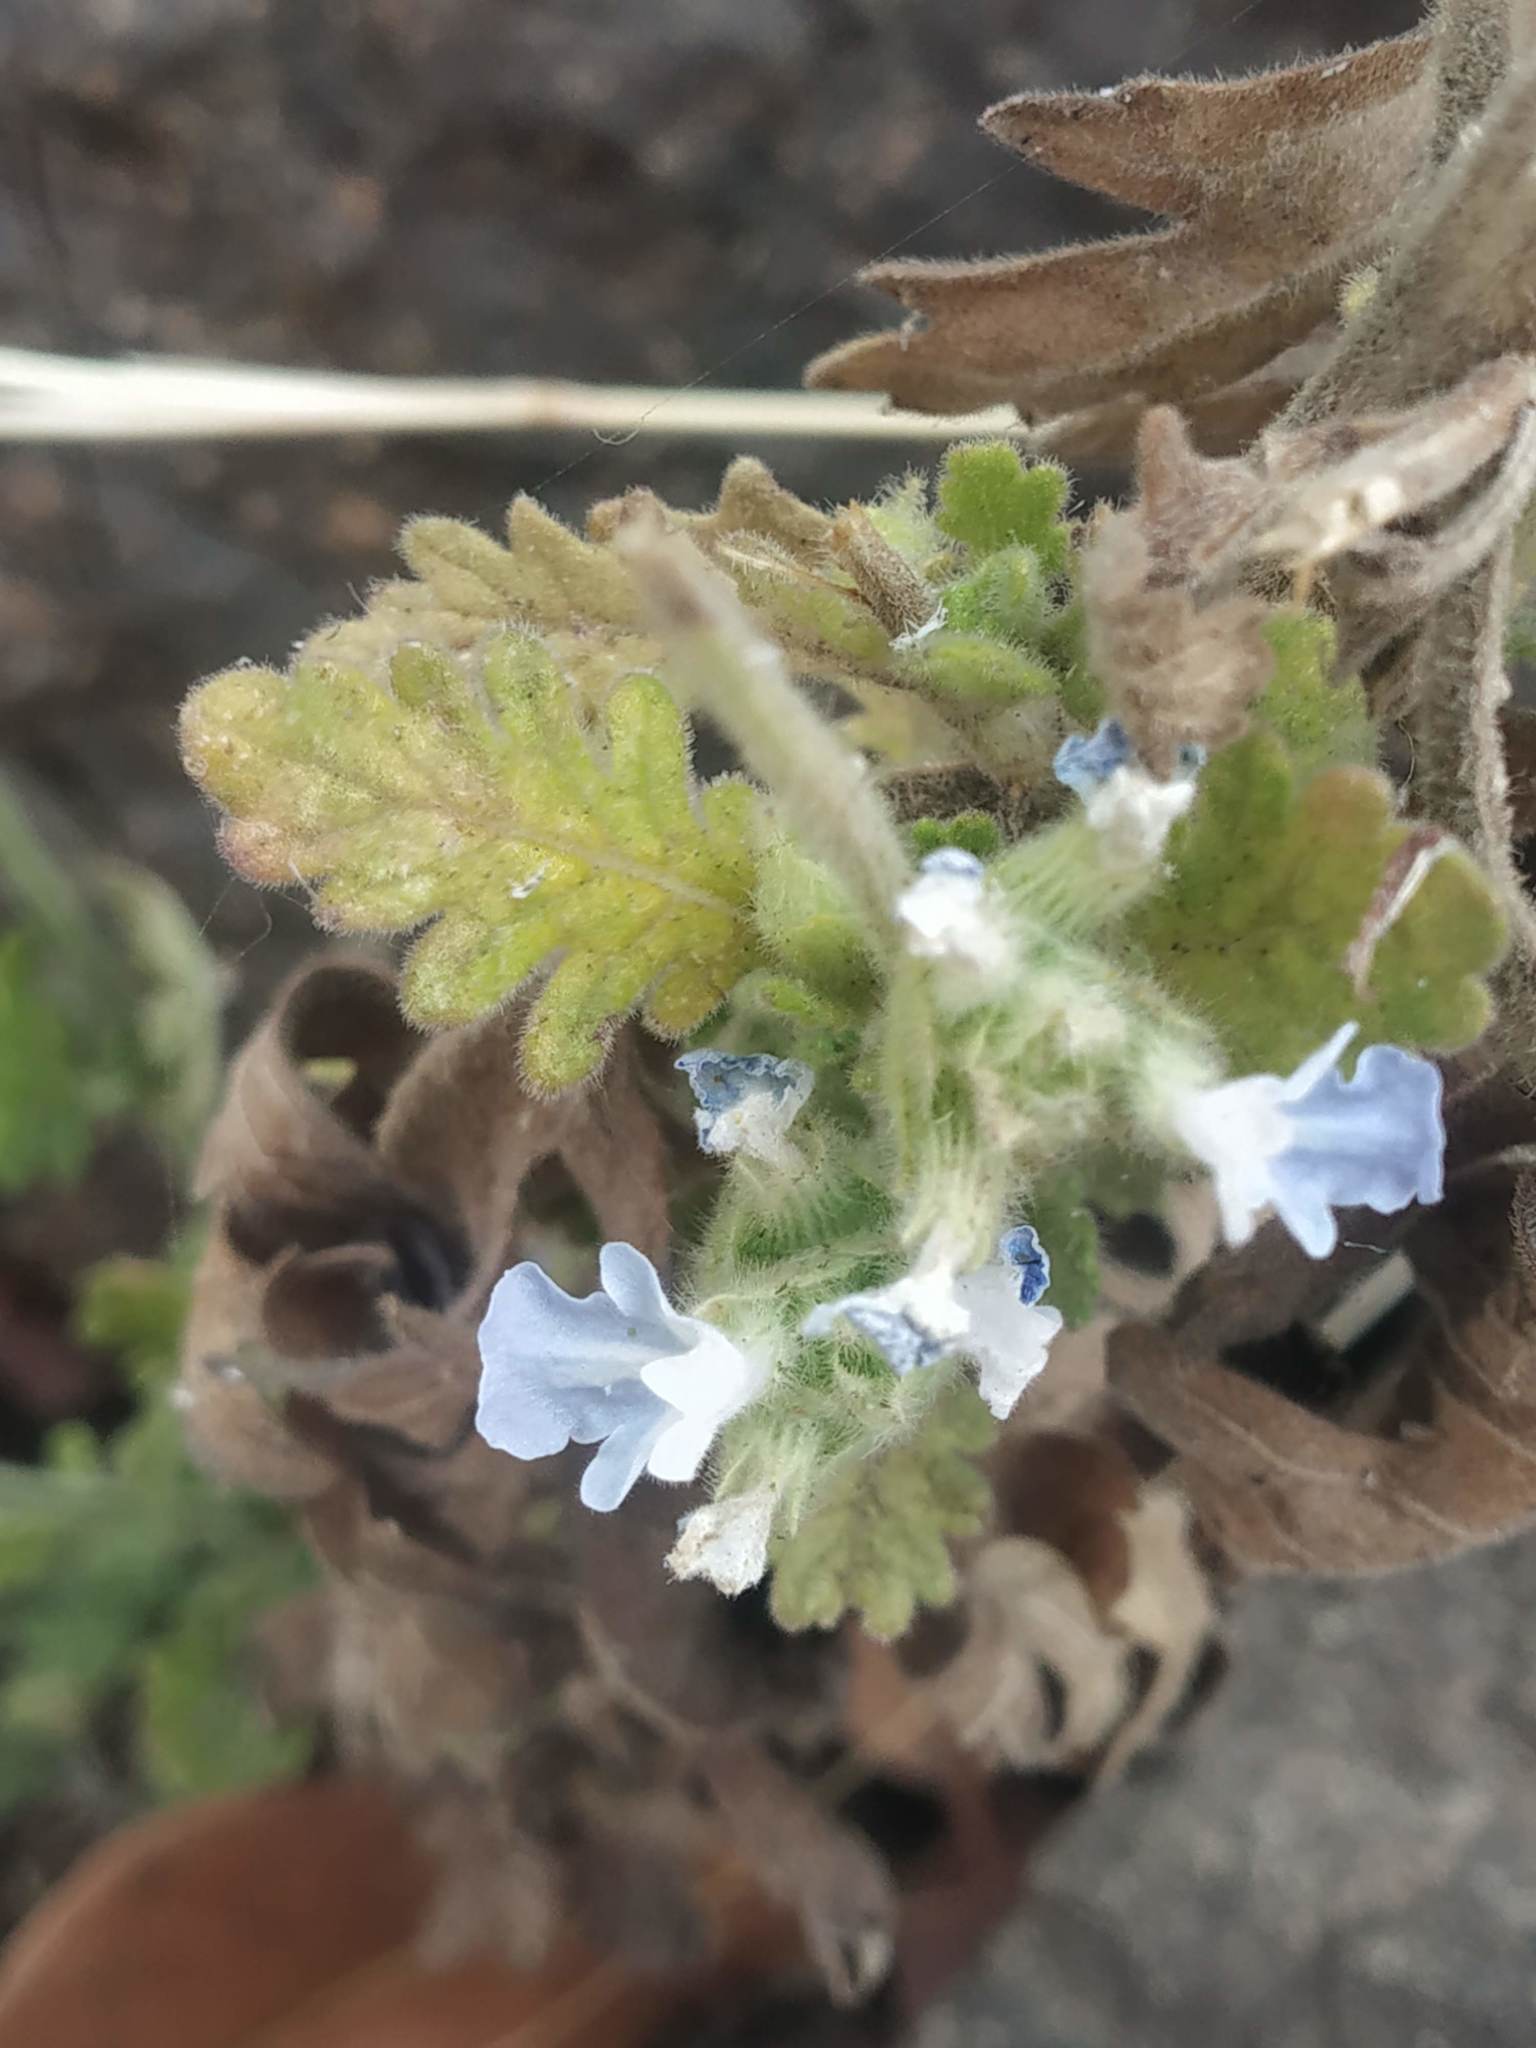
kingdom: Plantae
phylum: Tracheophyta
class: Magnoliopsida
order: Lamiales
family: Lamiaceae
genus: Lavandula
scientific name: Lavandula gibsonii
